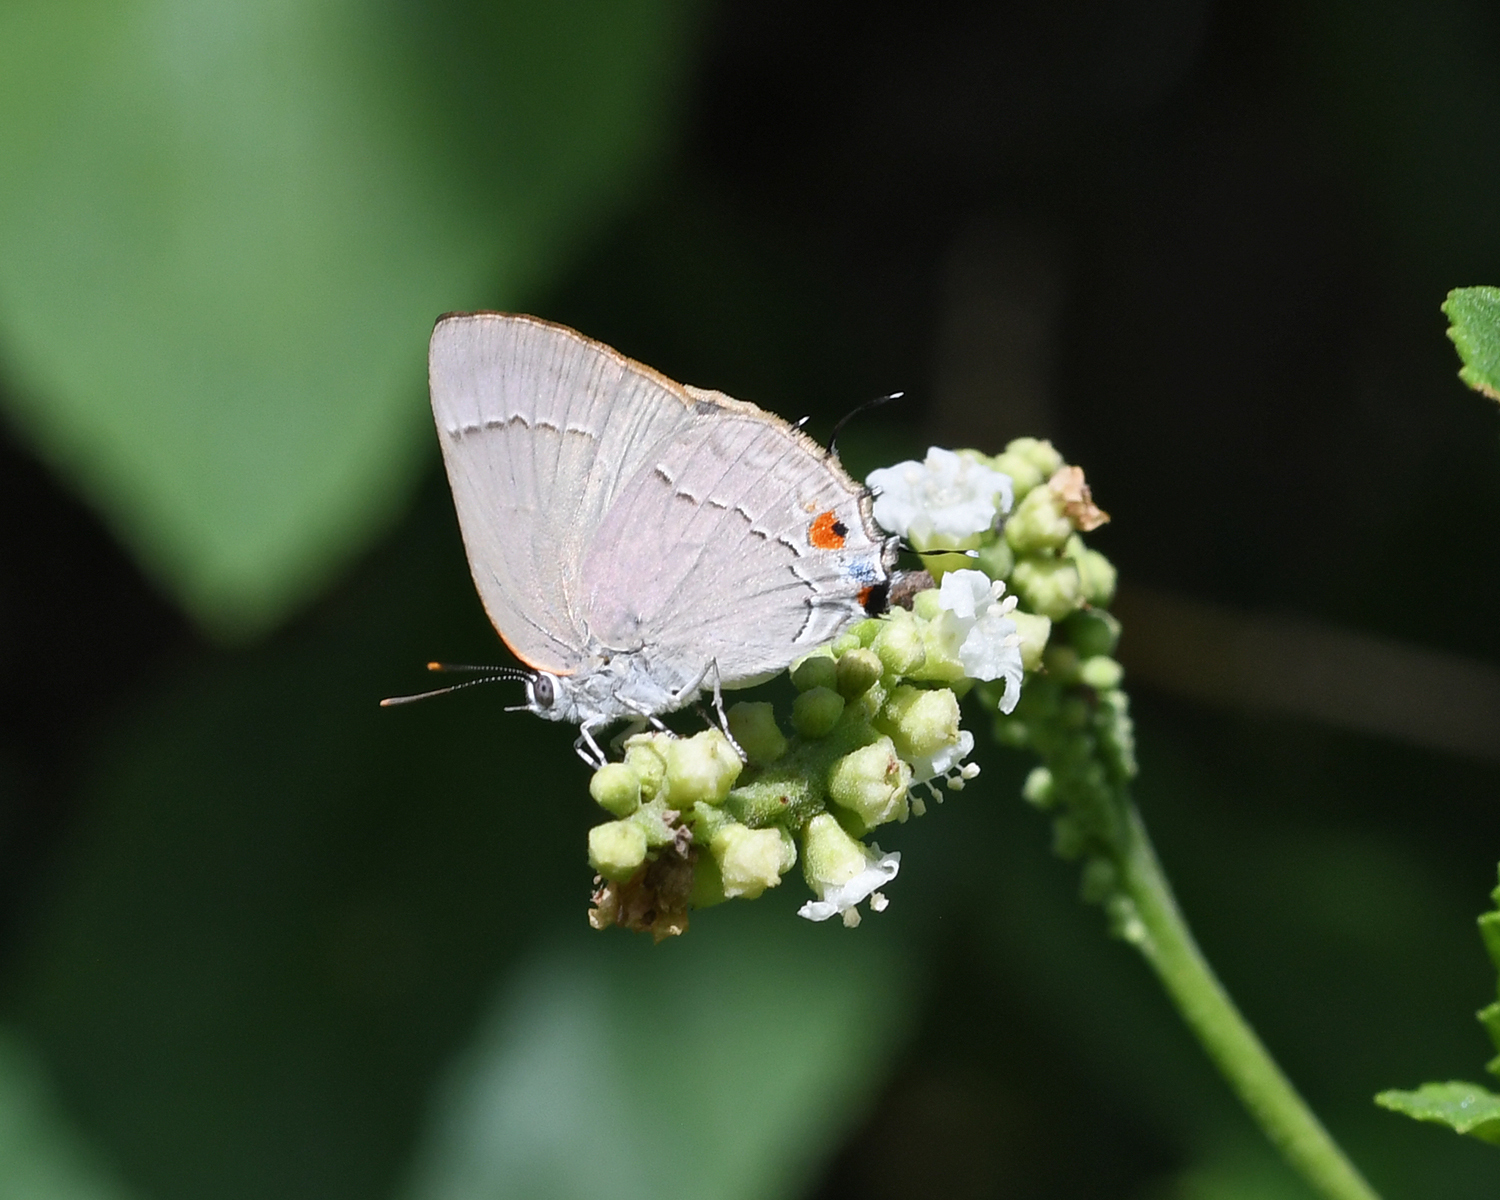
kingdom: Animalia
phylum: Arthropoda
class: Insecta
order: Lepidoptera
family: Lycaenidae
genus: Thecla
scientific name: Thecla marius
